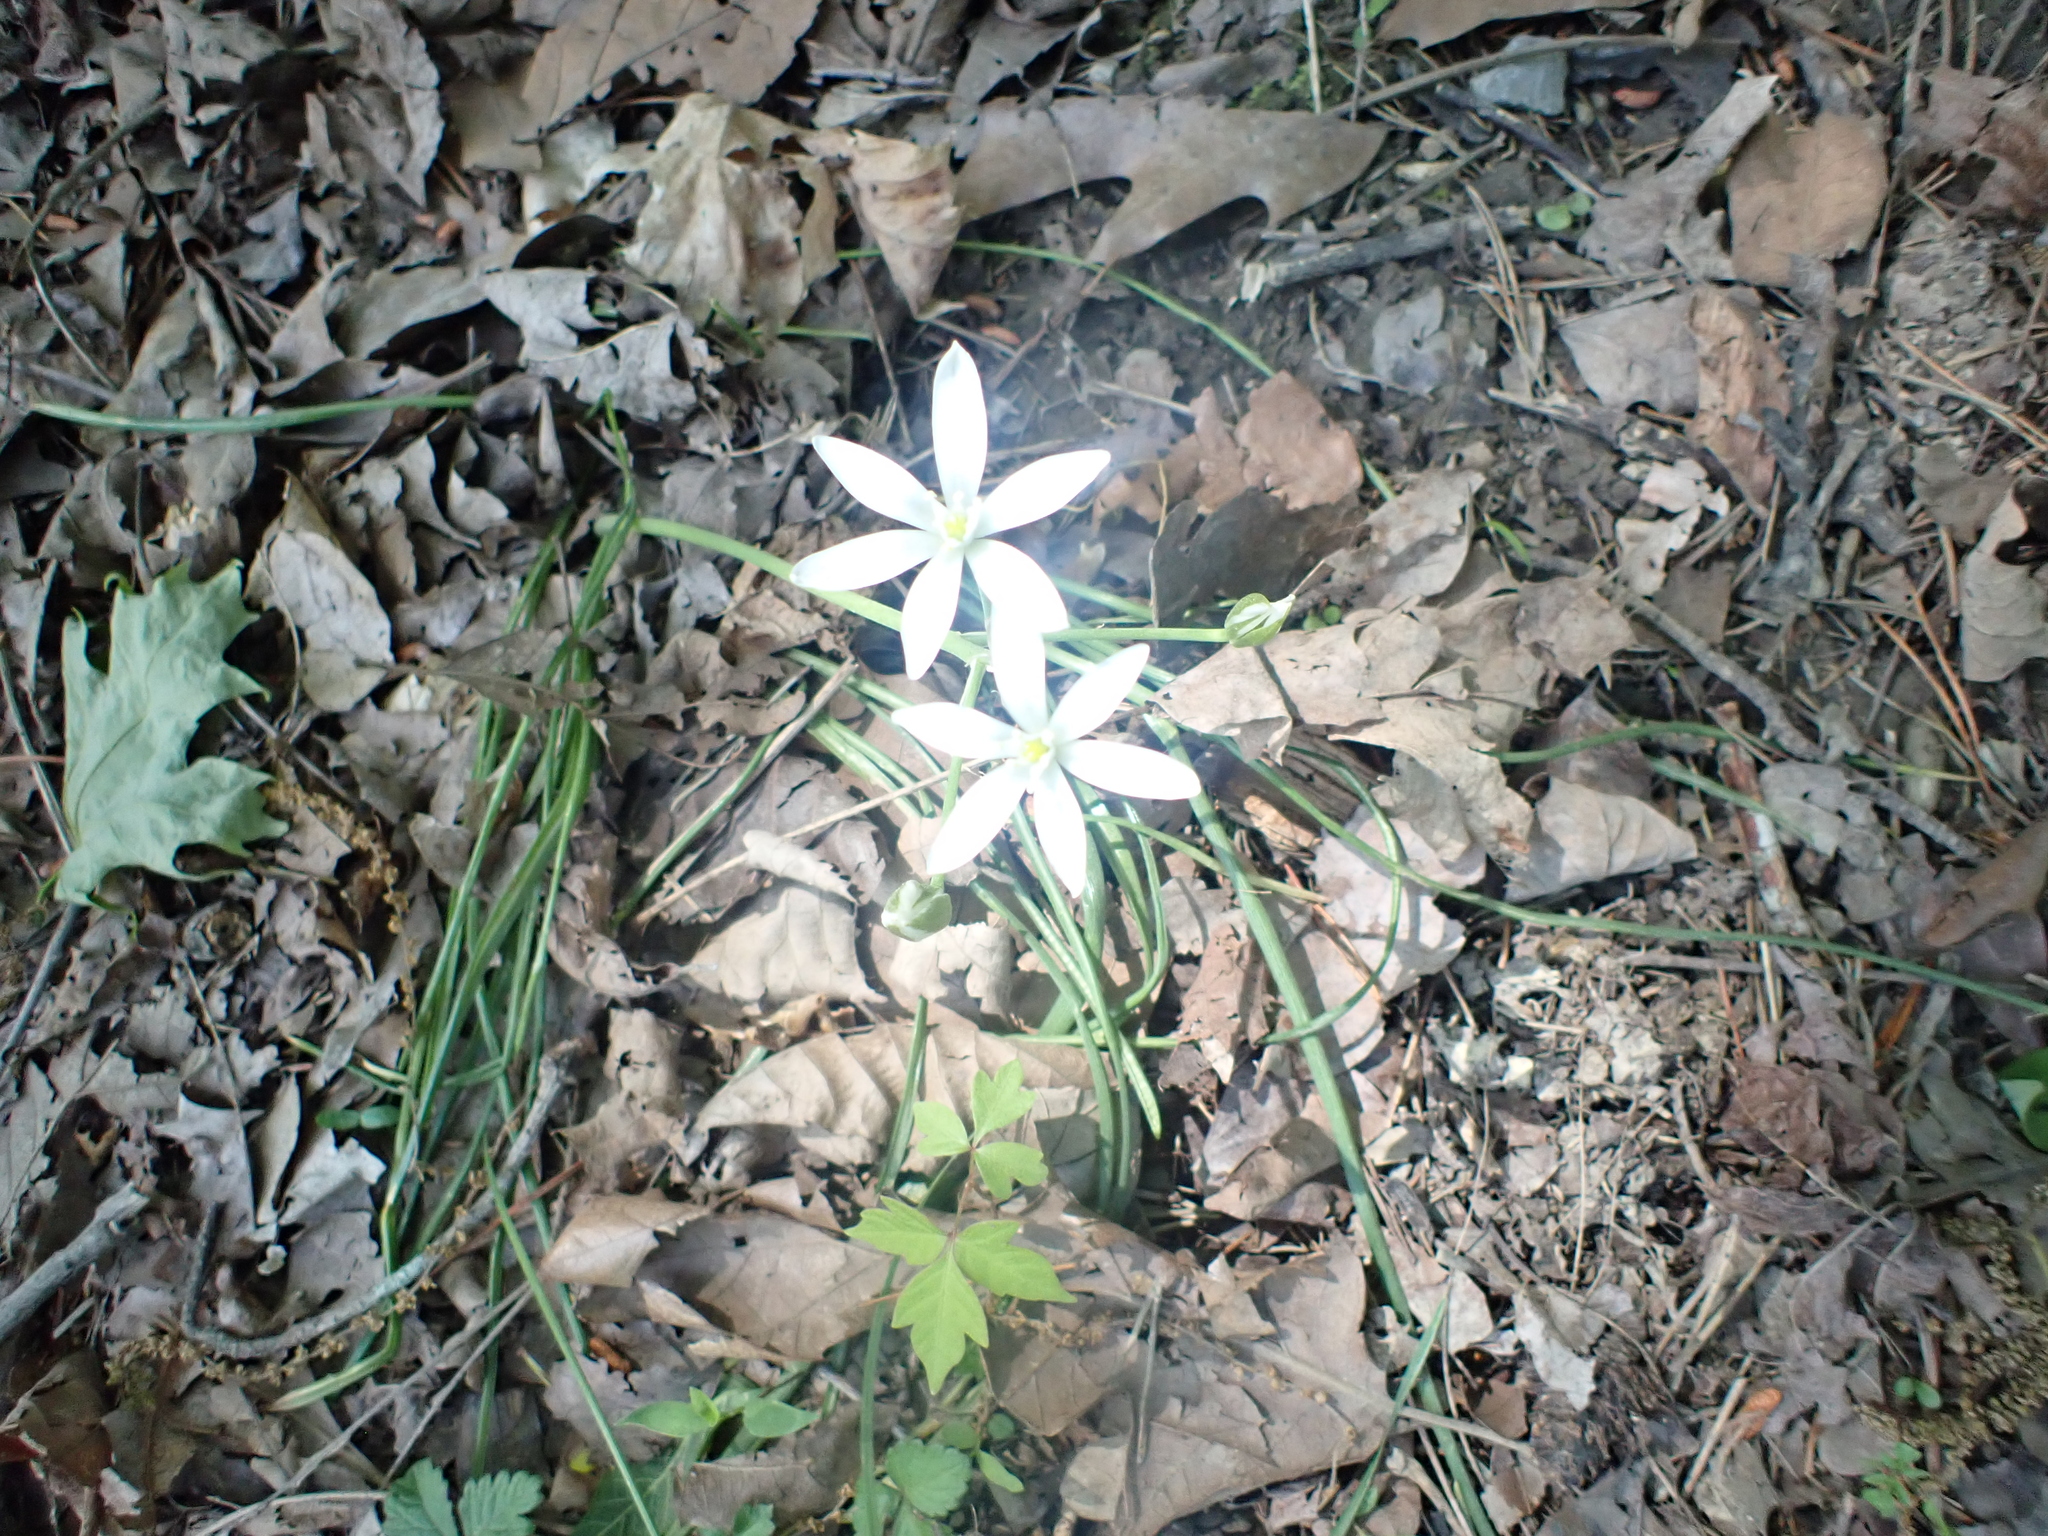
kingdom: Plantae
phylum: Tracheophyta
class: Liliopsida
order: Asparagales
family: Asparagaceae
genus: Ornithogalum
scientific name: Ornithogalum umbellatum
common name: Garden star-of-bethlehem
